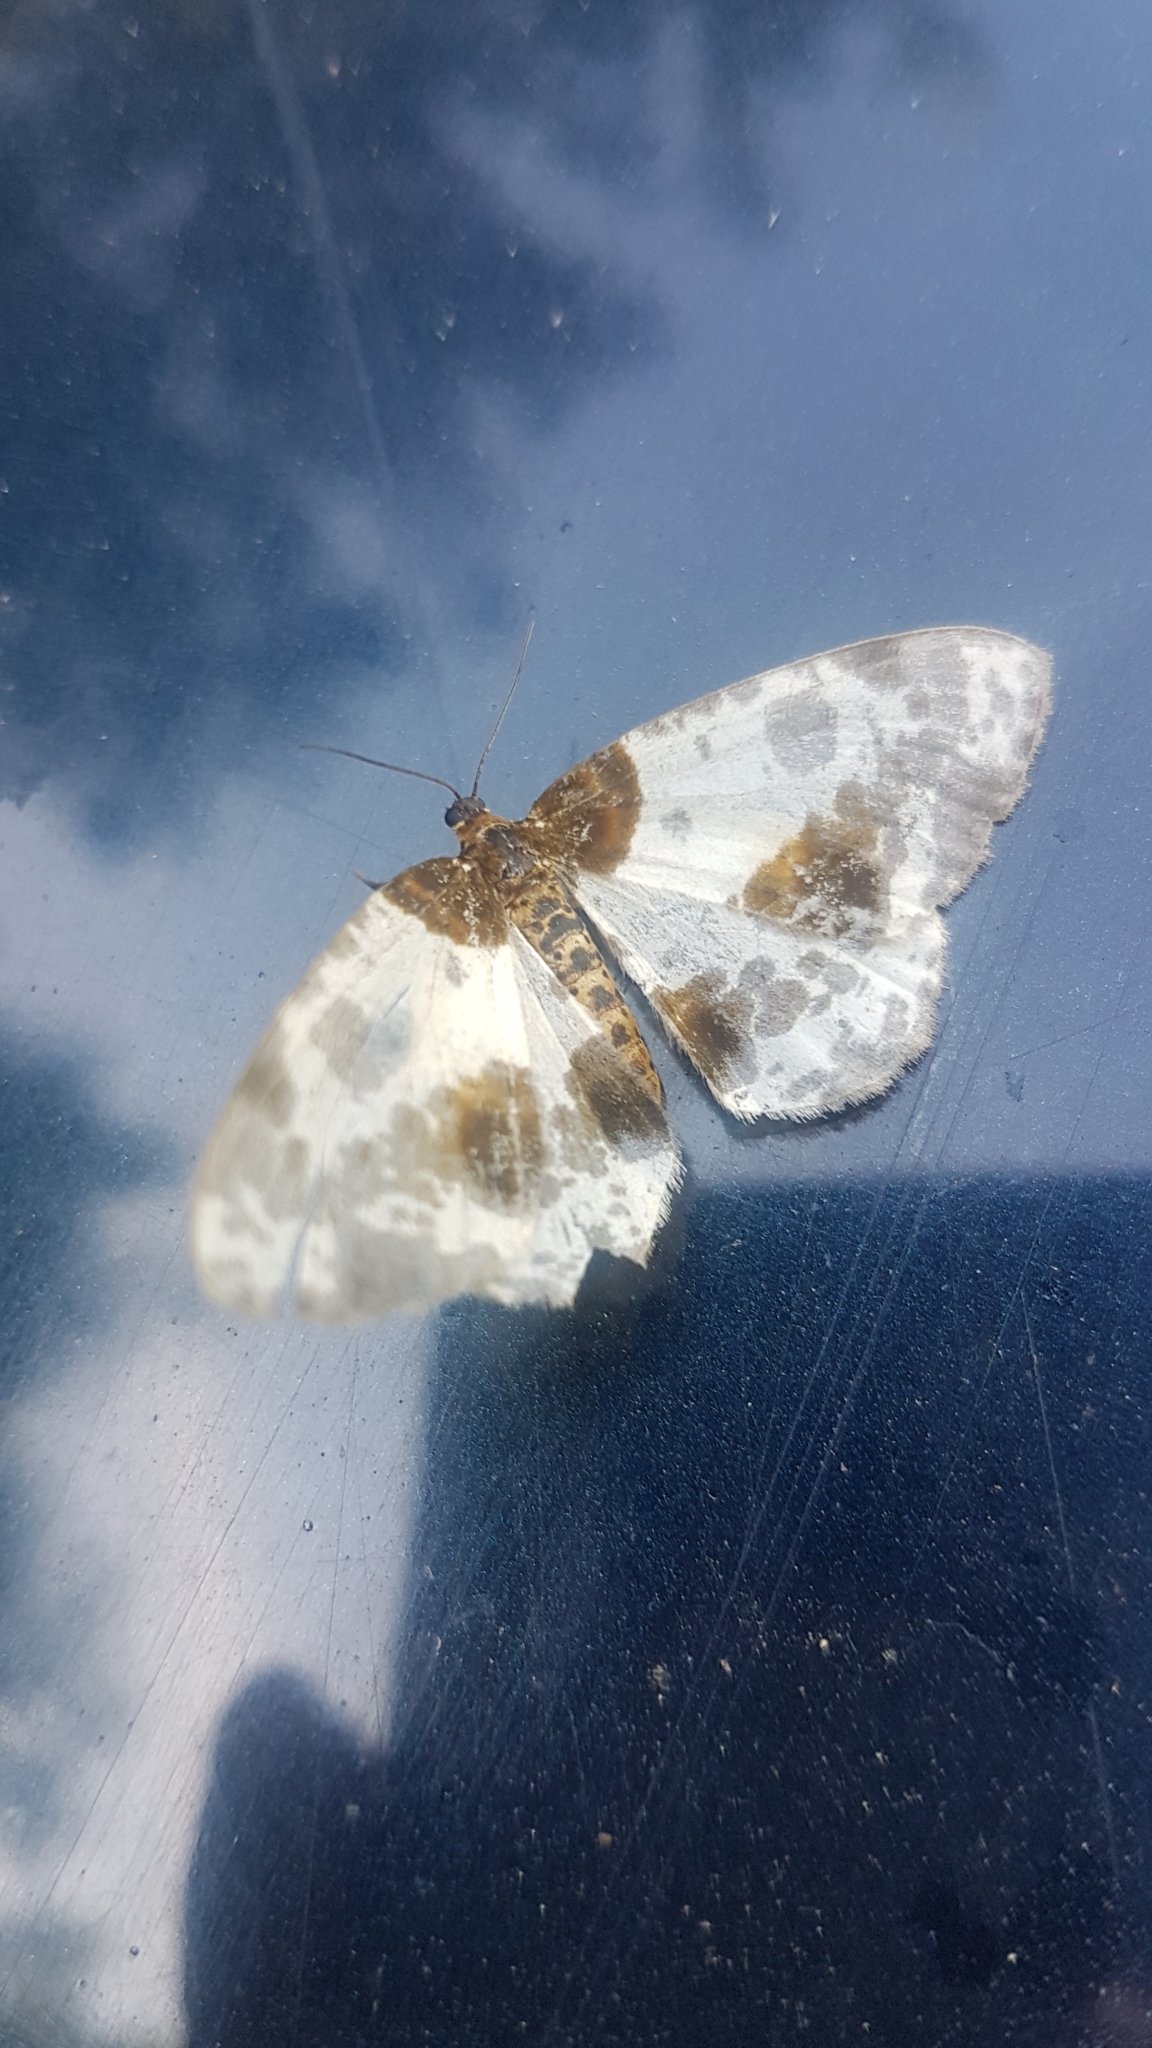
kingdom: Animalia
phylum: Arthropoda
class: Insecta
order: Lepidoptera
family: Geometridae
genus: Abraxas
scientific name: Abraxas sylvata
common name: Clouded magpie
